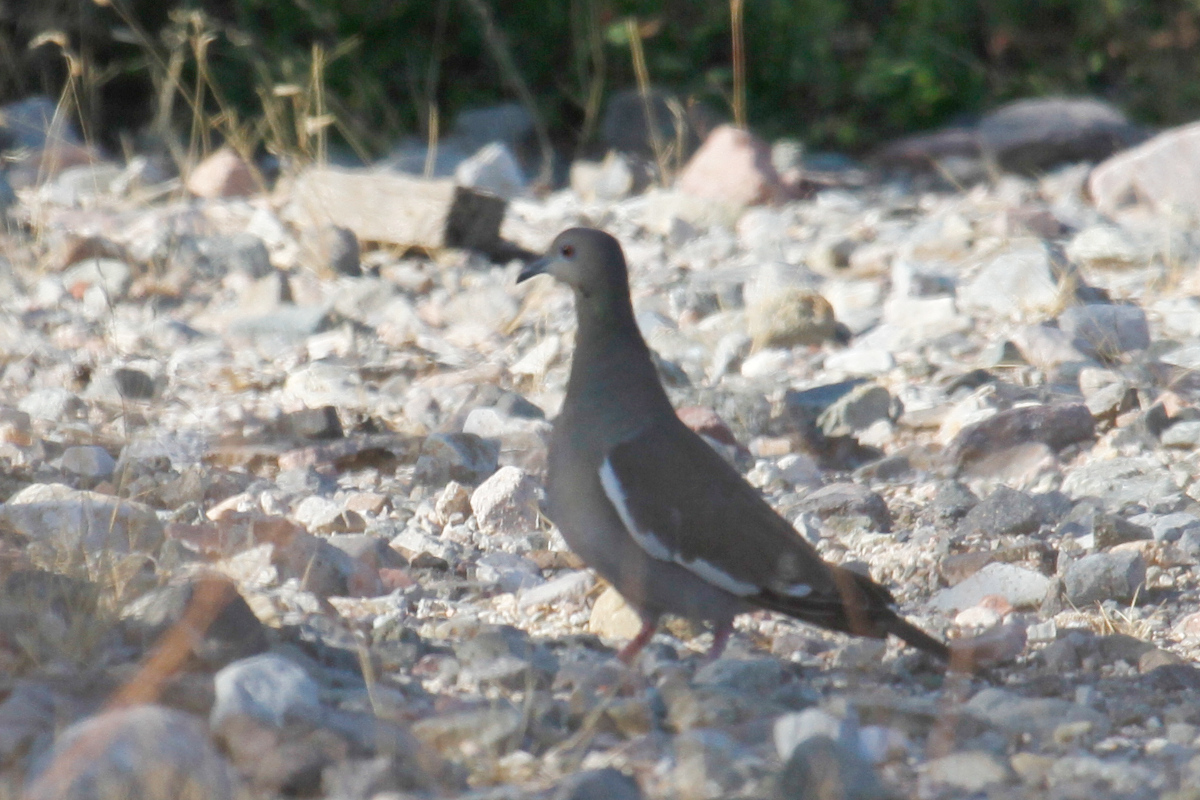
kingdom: Animalia
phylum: Chordata
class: Aves
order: Columbiformes
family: Columbidae
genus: Zenaida
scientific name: Zenaida asiatica
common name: White-winged dove
